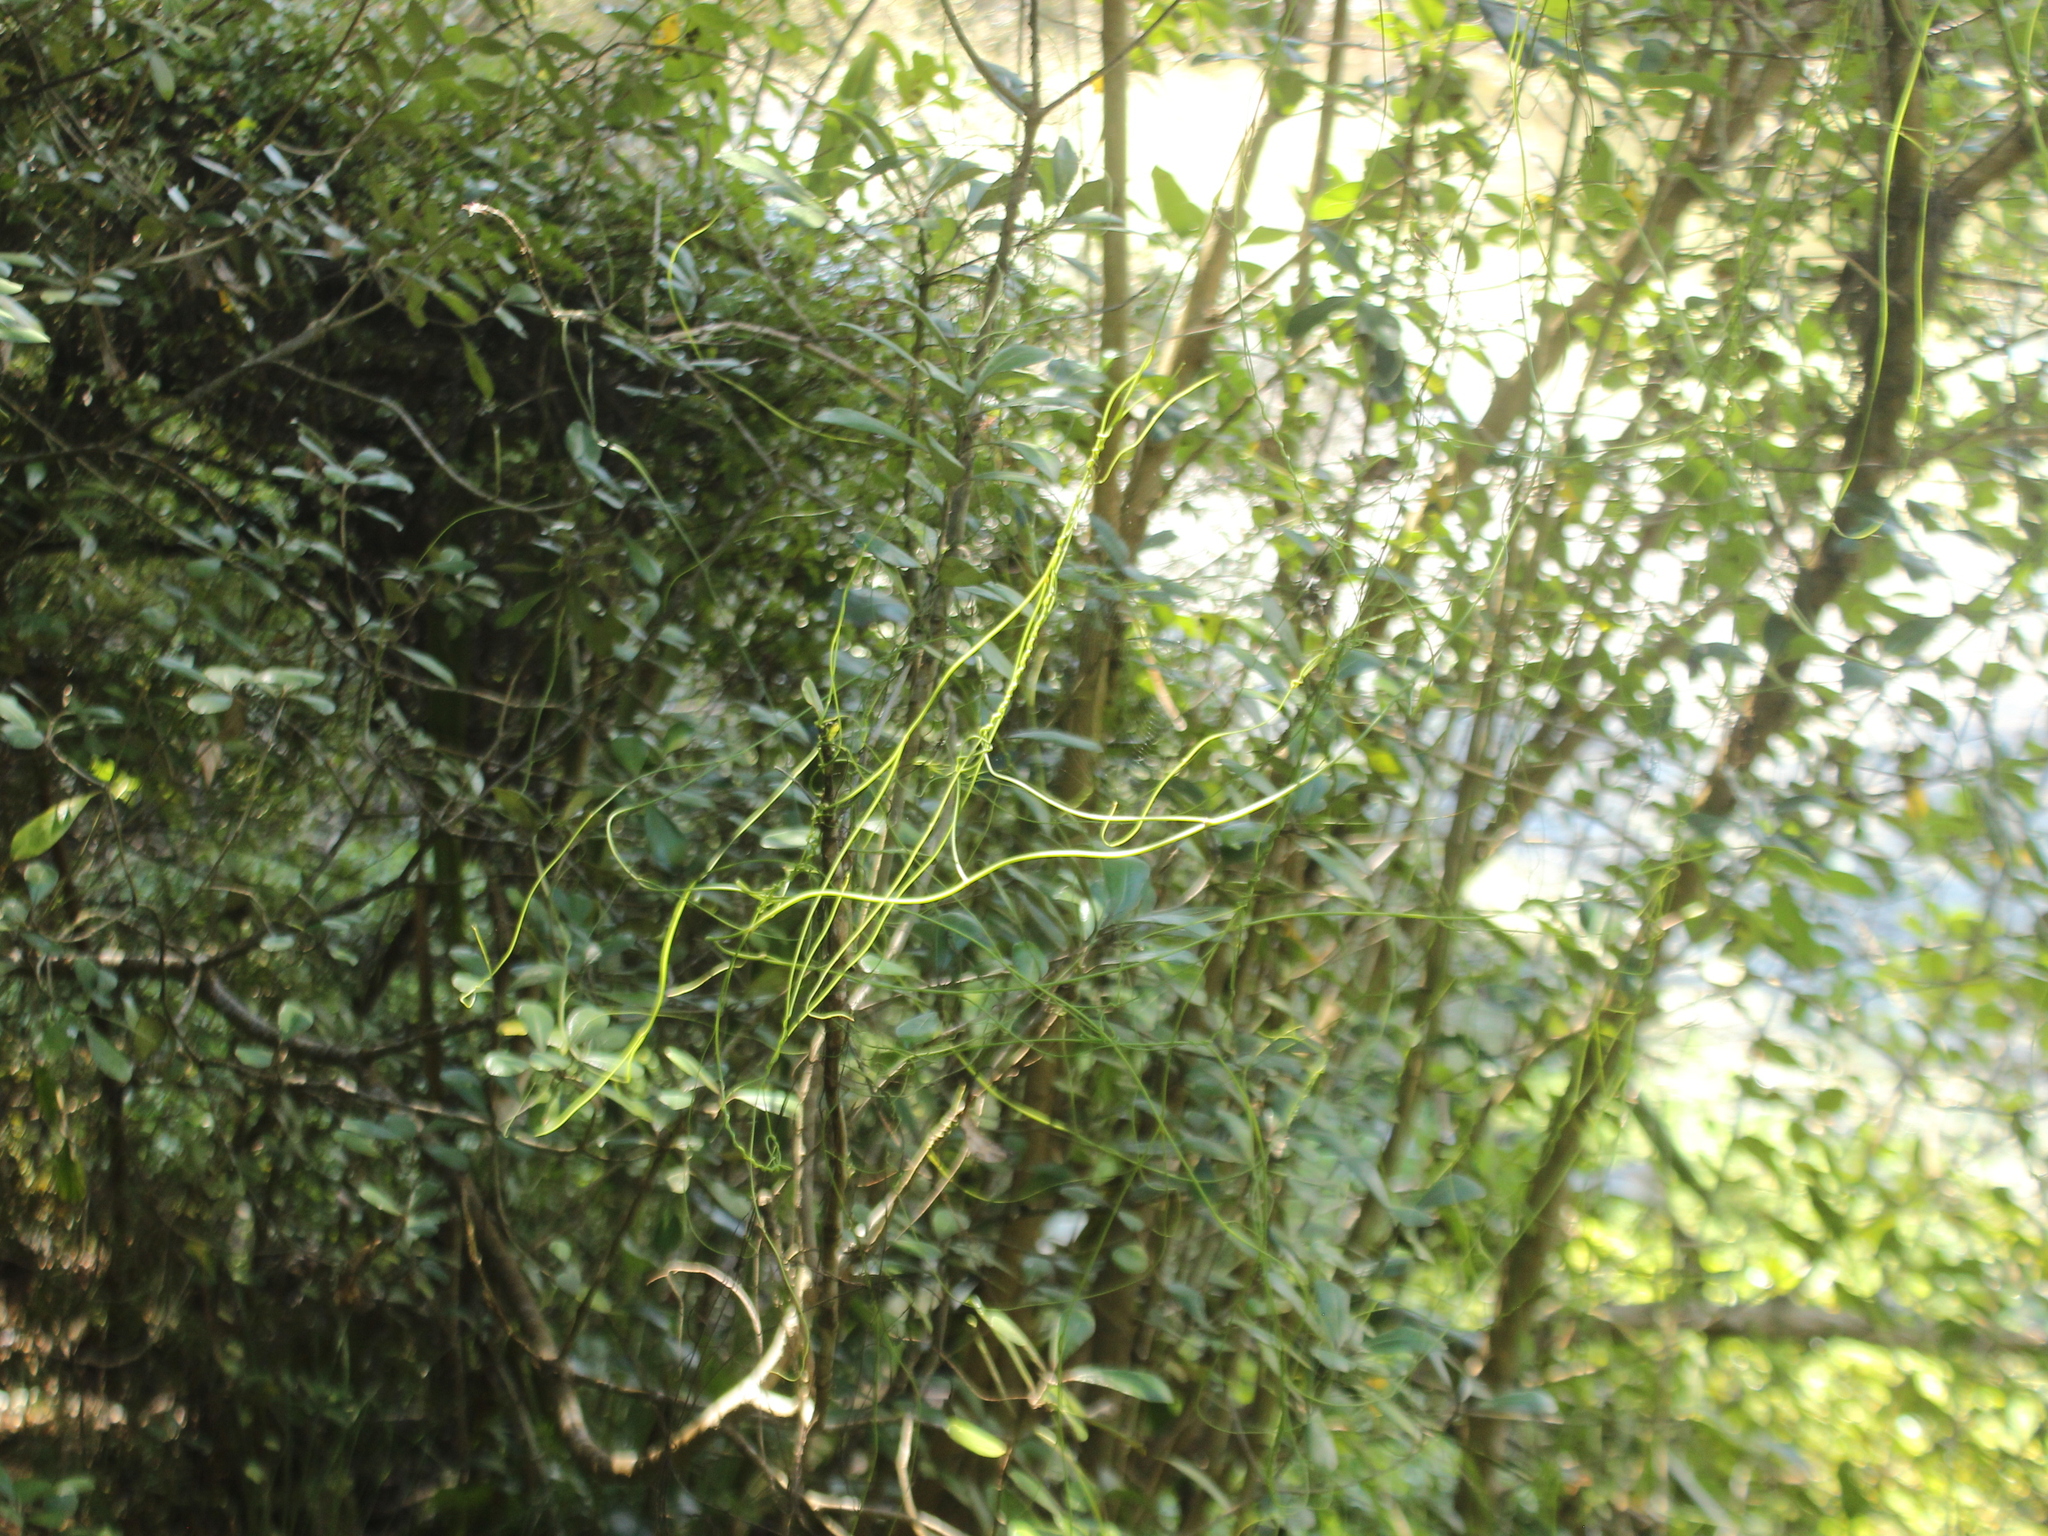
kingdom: Plantae
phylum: Tracheophyta
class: Magnoliopsida
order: Laurales
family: Lauraceae
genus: Cassytha
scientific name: Cassytha paniculata
